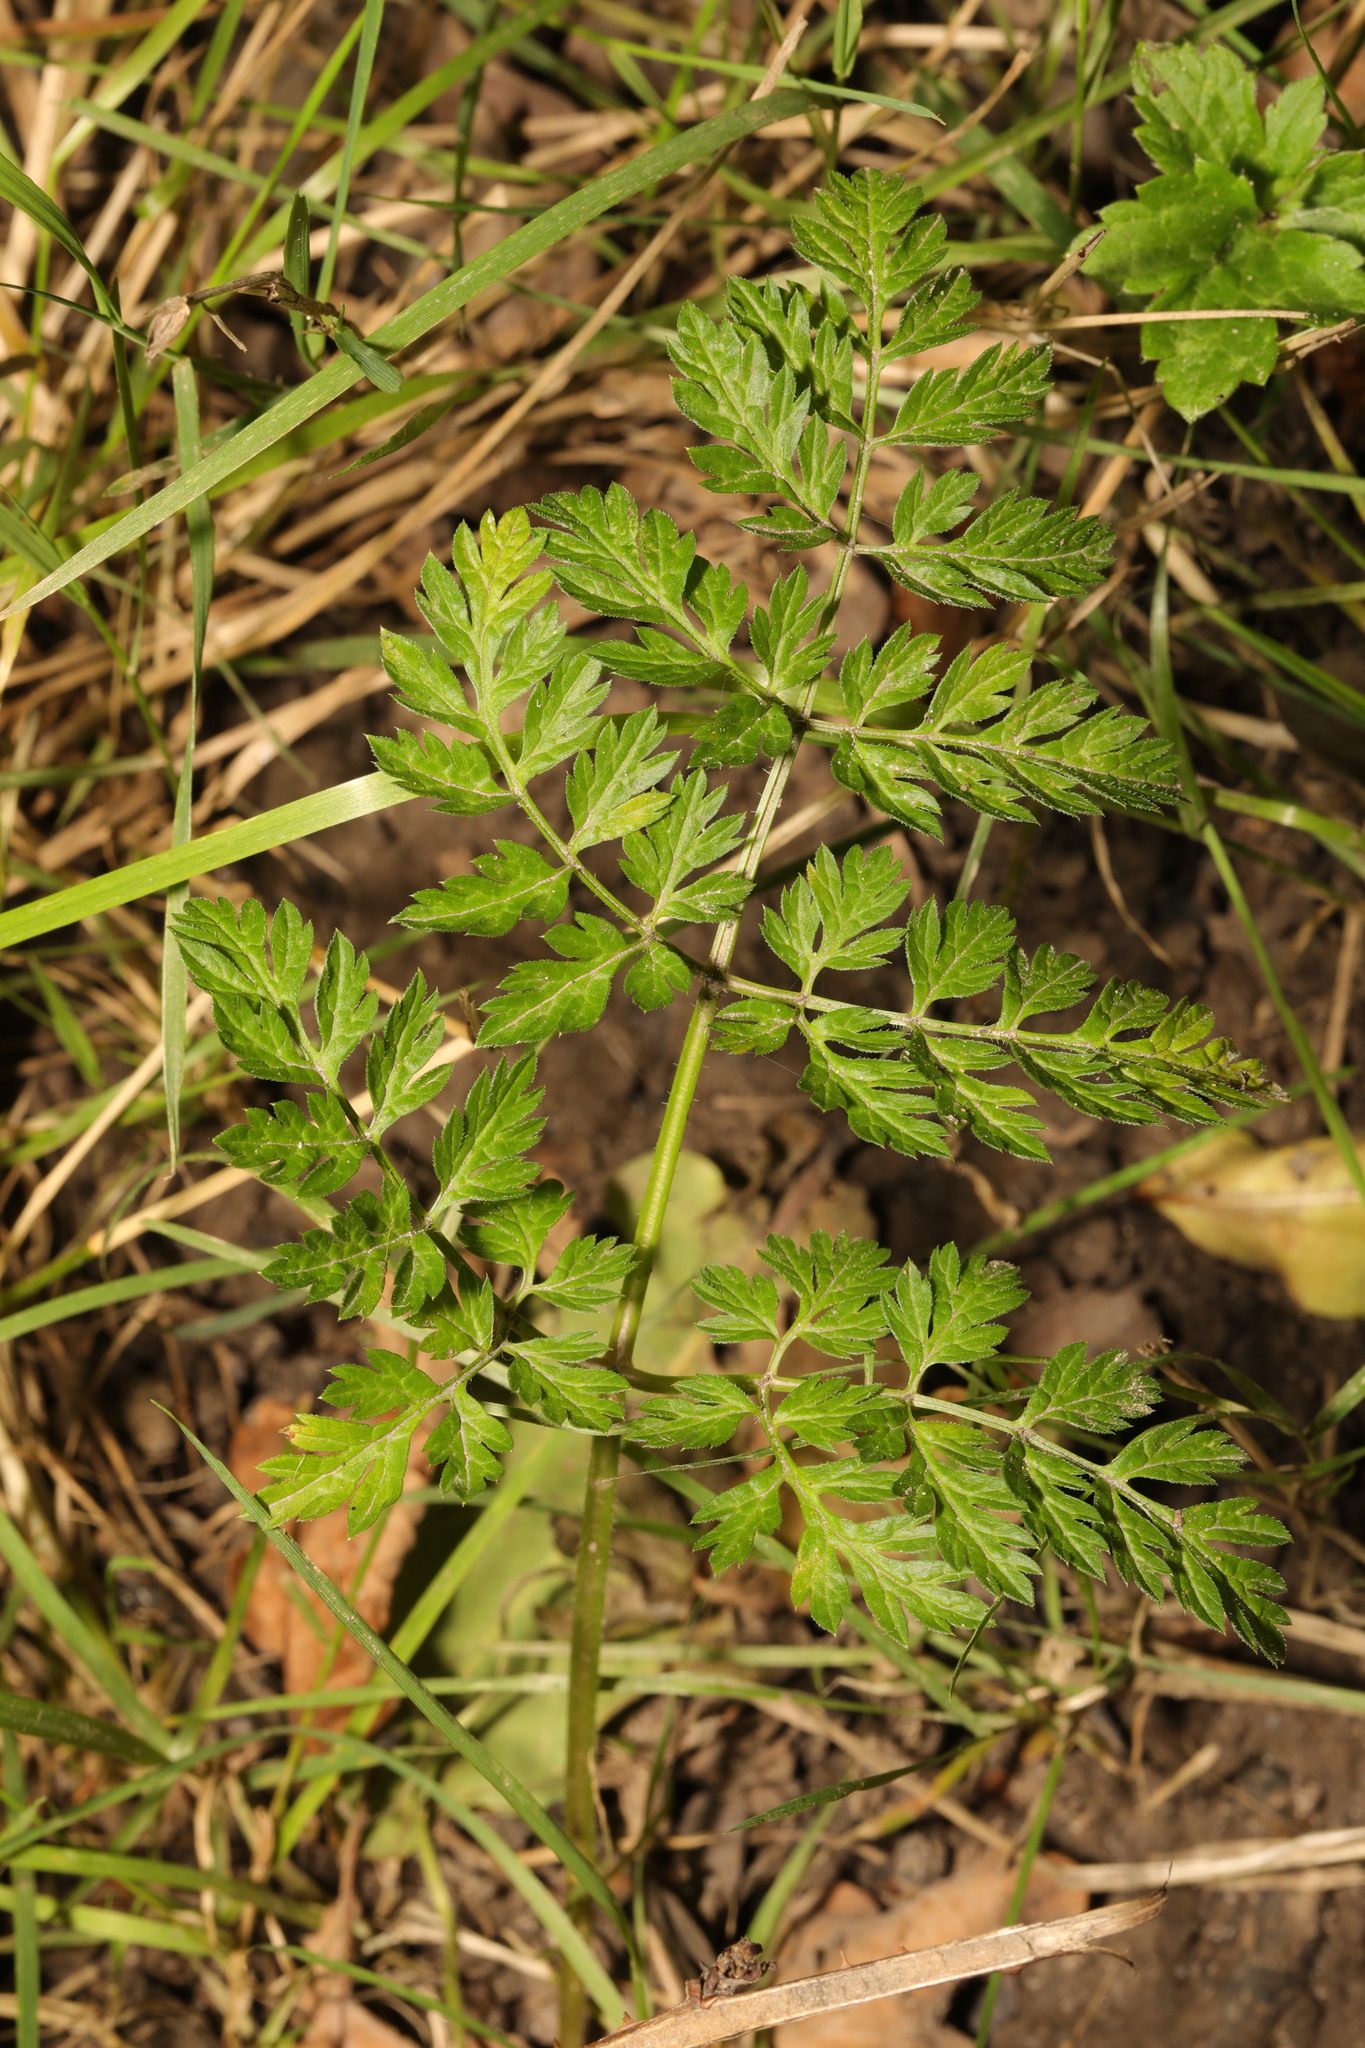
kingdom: Plantae
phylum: Tracheophyta
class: Magnoliopsida
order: Apiales
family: Apiaceae
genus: Anthriscus
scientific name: Anthriscus sylvestris
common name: Cow parsley
